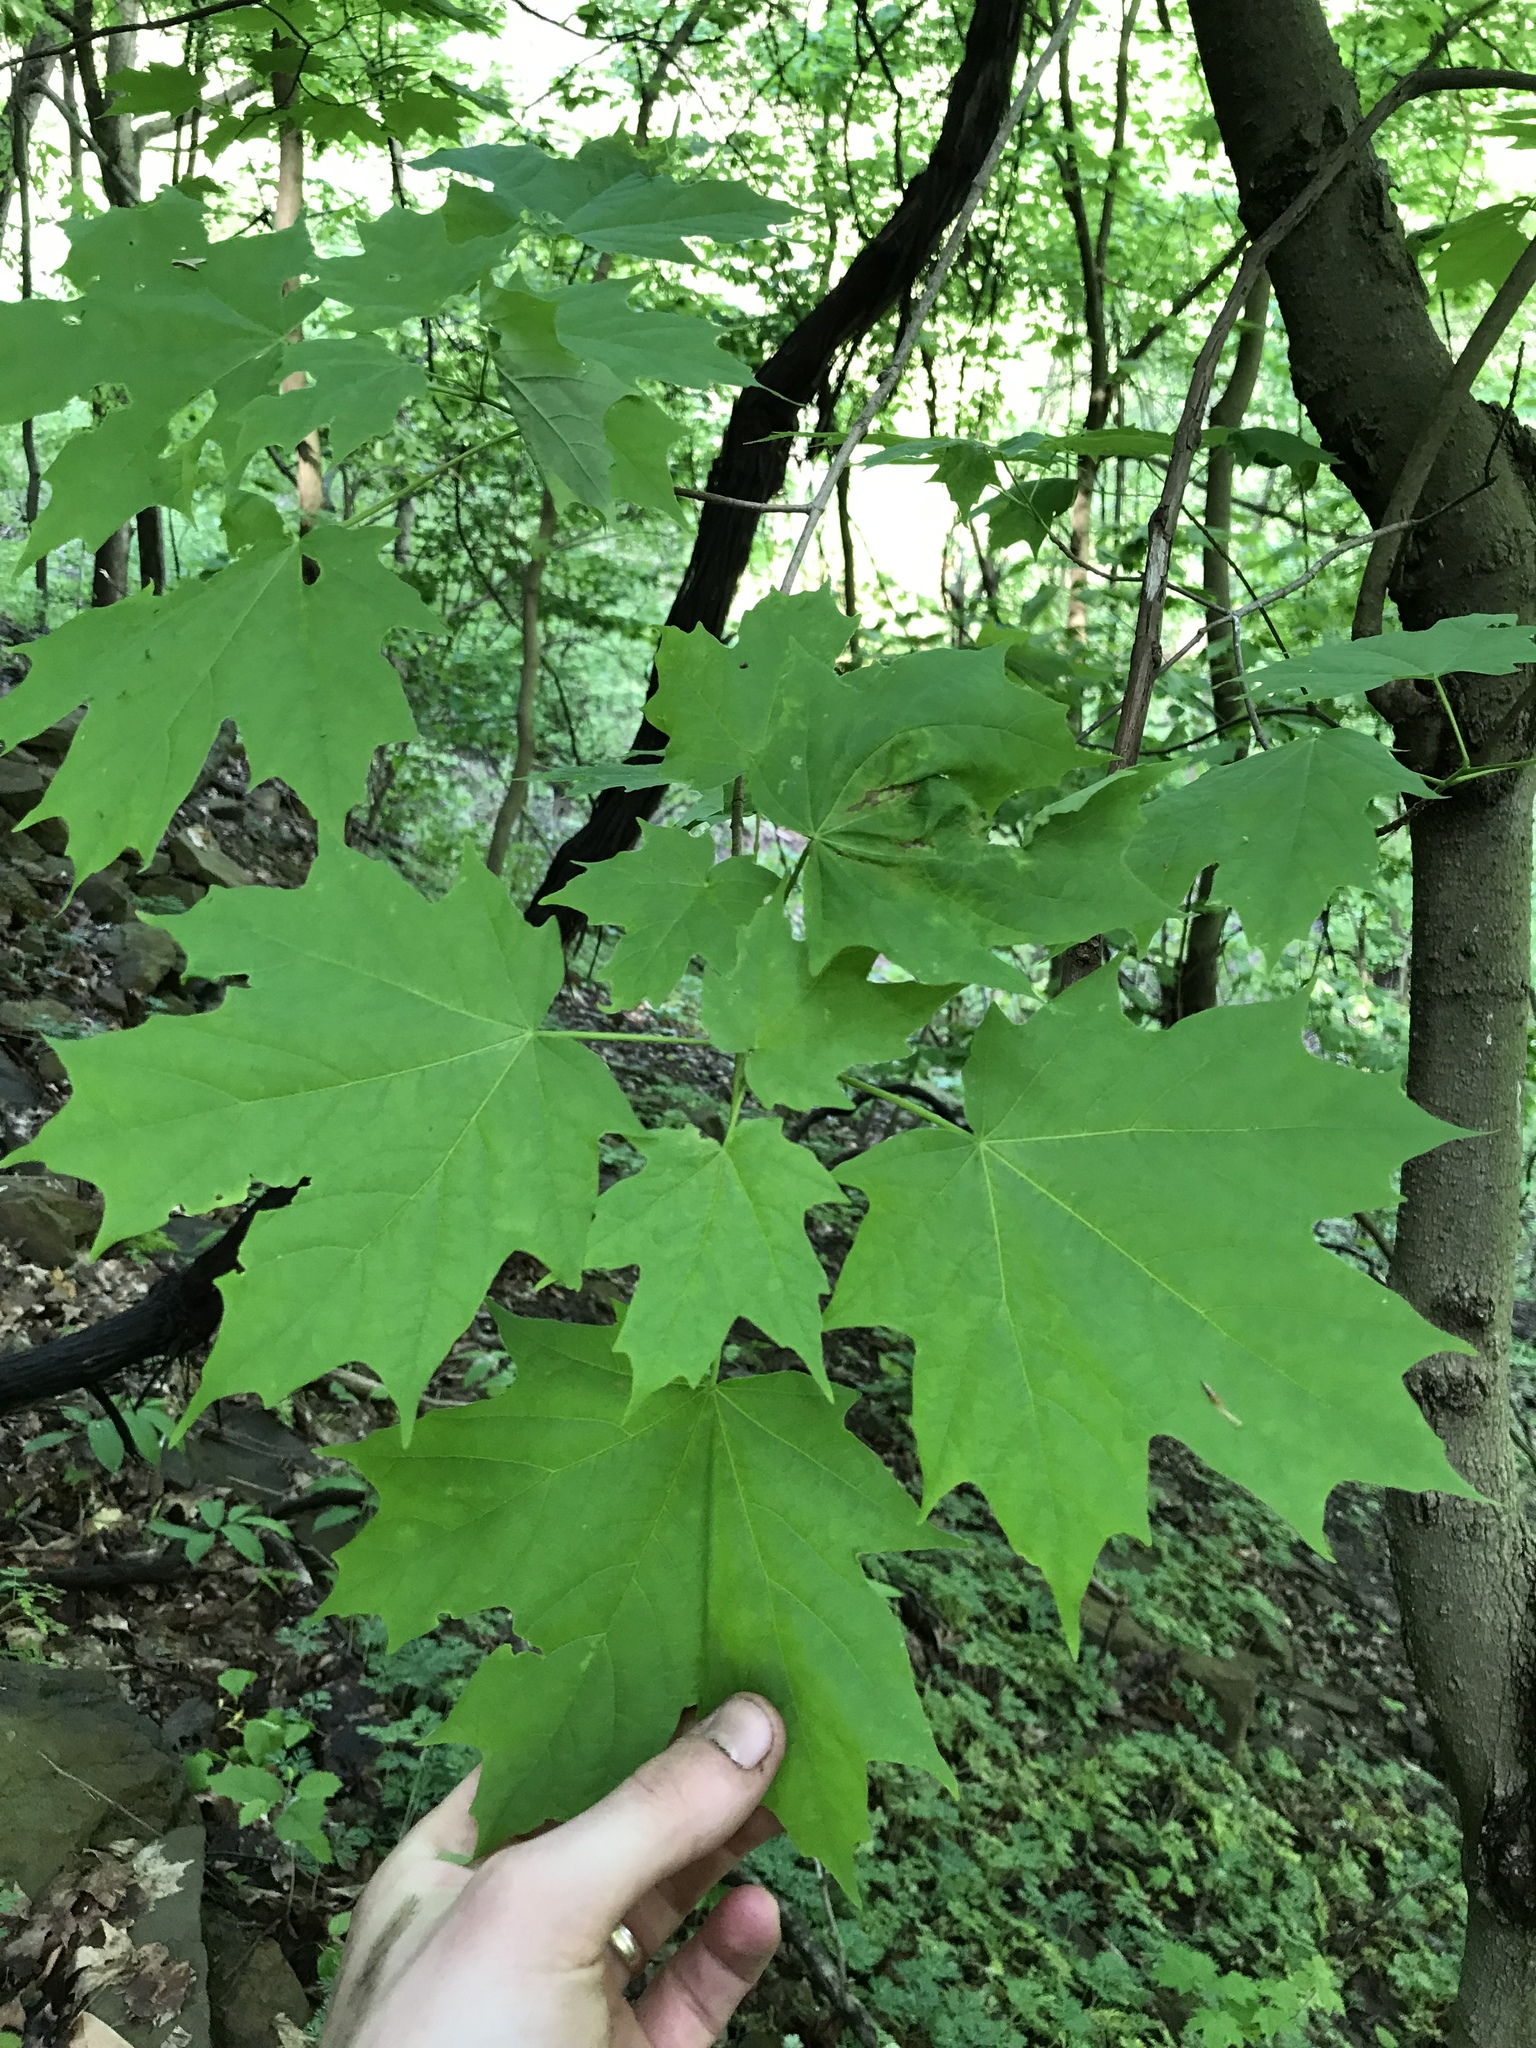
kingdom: Plantae
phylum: Tracheophyta
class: Magnoliopsida
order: Sapindales
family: Sapindaceae
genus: Acer
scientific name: Acer saccharum
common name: Sugar maple
